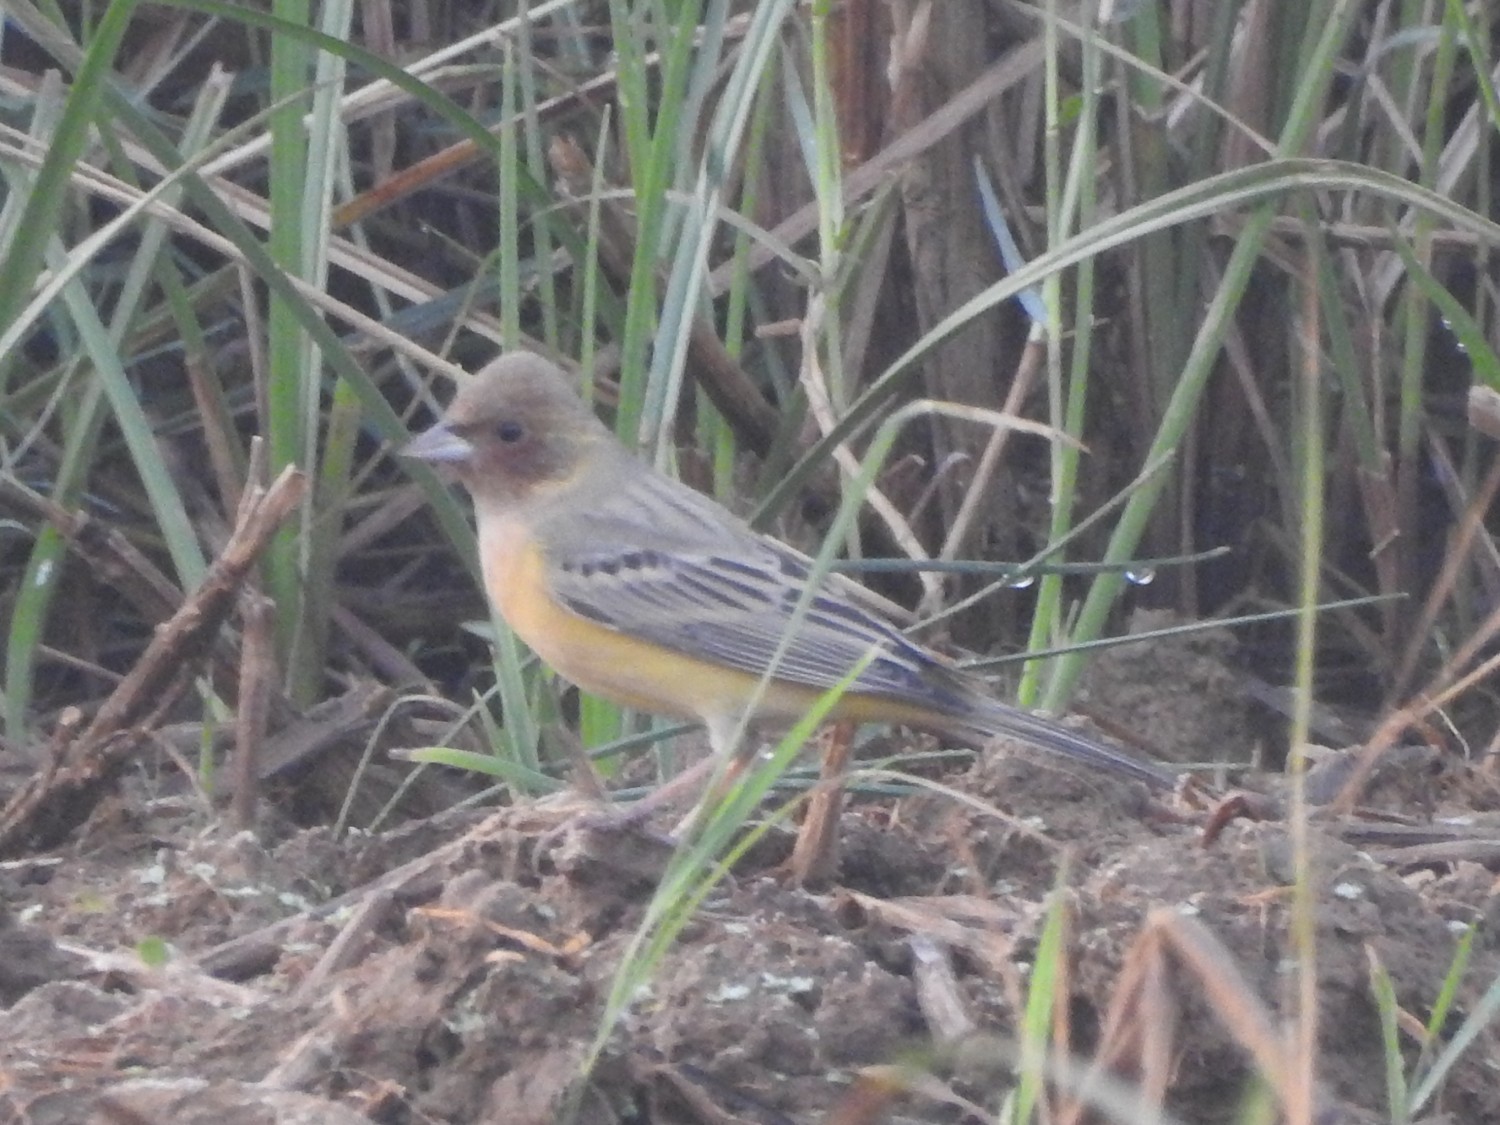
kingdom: Animalia
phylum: Chordata
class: Aves
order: Passeriformes
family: Emberizidae
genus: Emberiza
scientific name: Emberiza bruniceps
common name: Red-headed bunting
